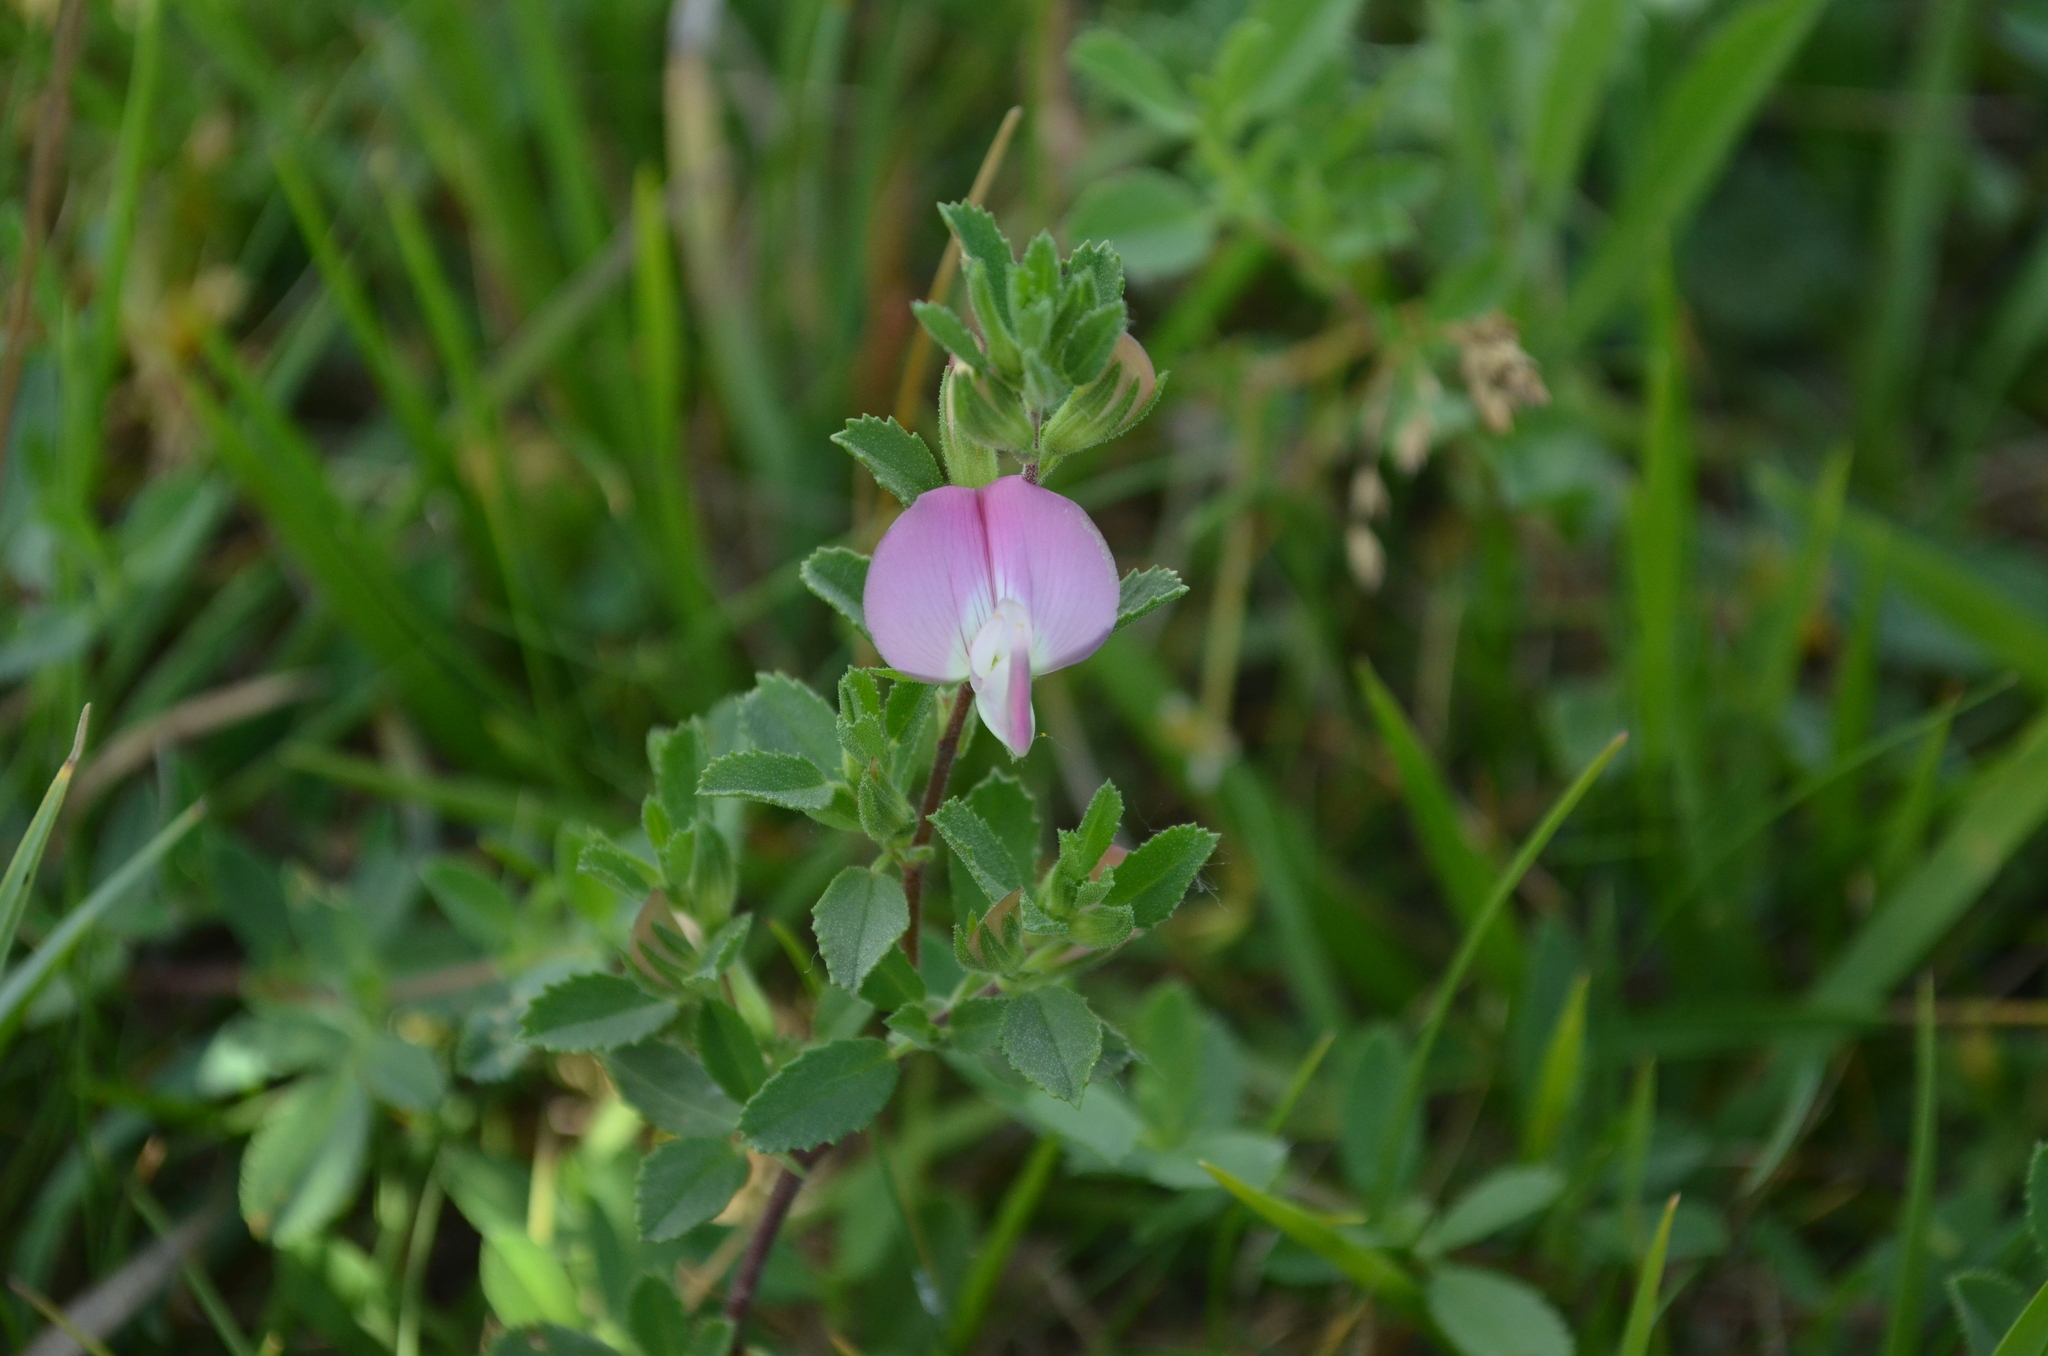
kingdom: Plantae
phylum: Tracheophyta
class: Magnoliopsida
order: Fabales
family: Fabaceae
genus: Ononis
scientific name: Ononis spinosa
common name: Spiny restharrow
